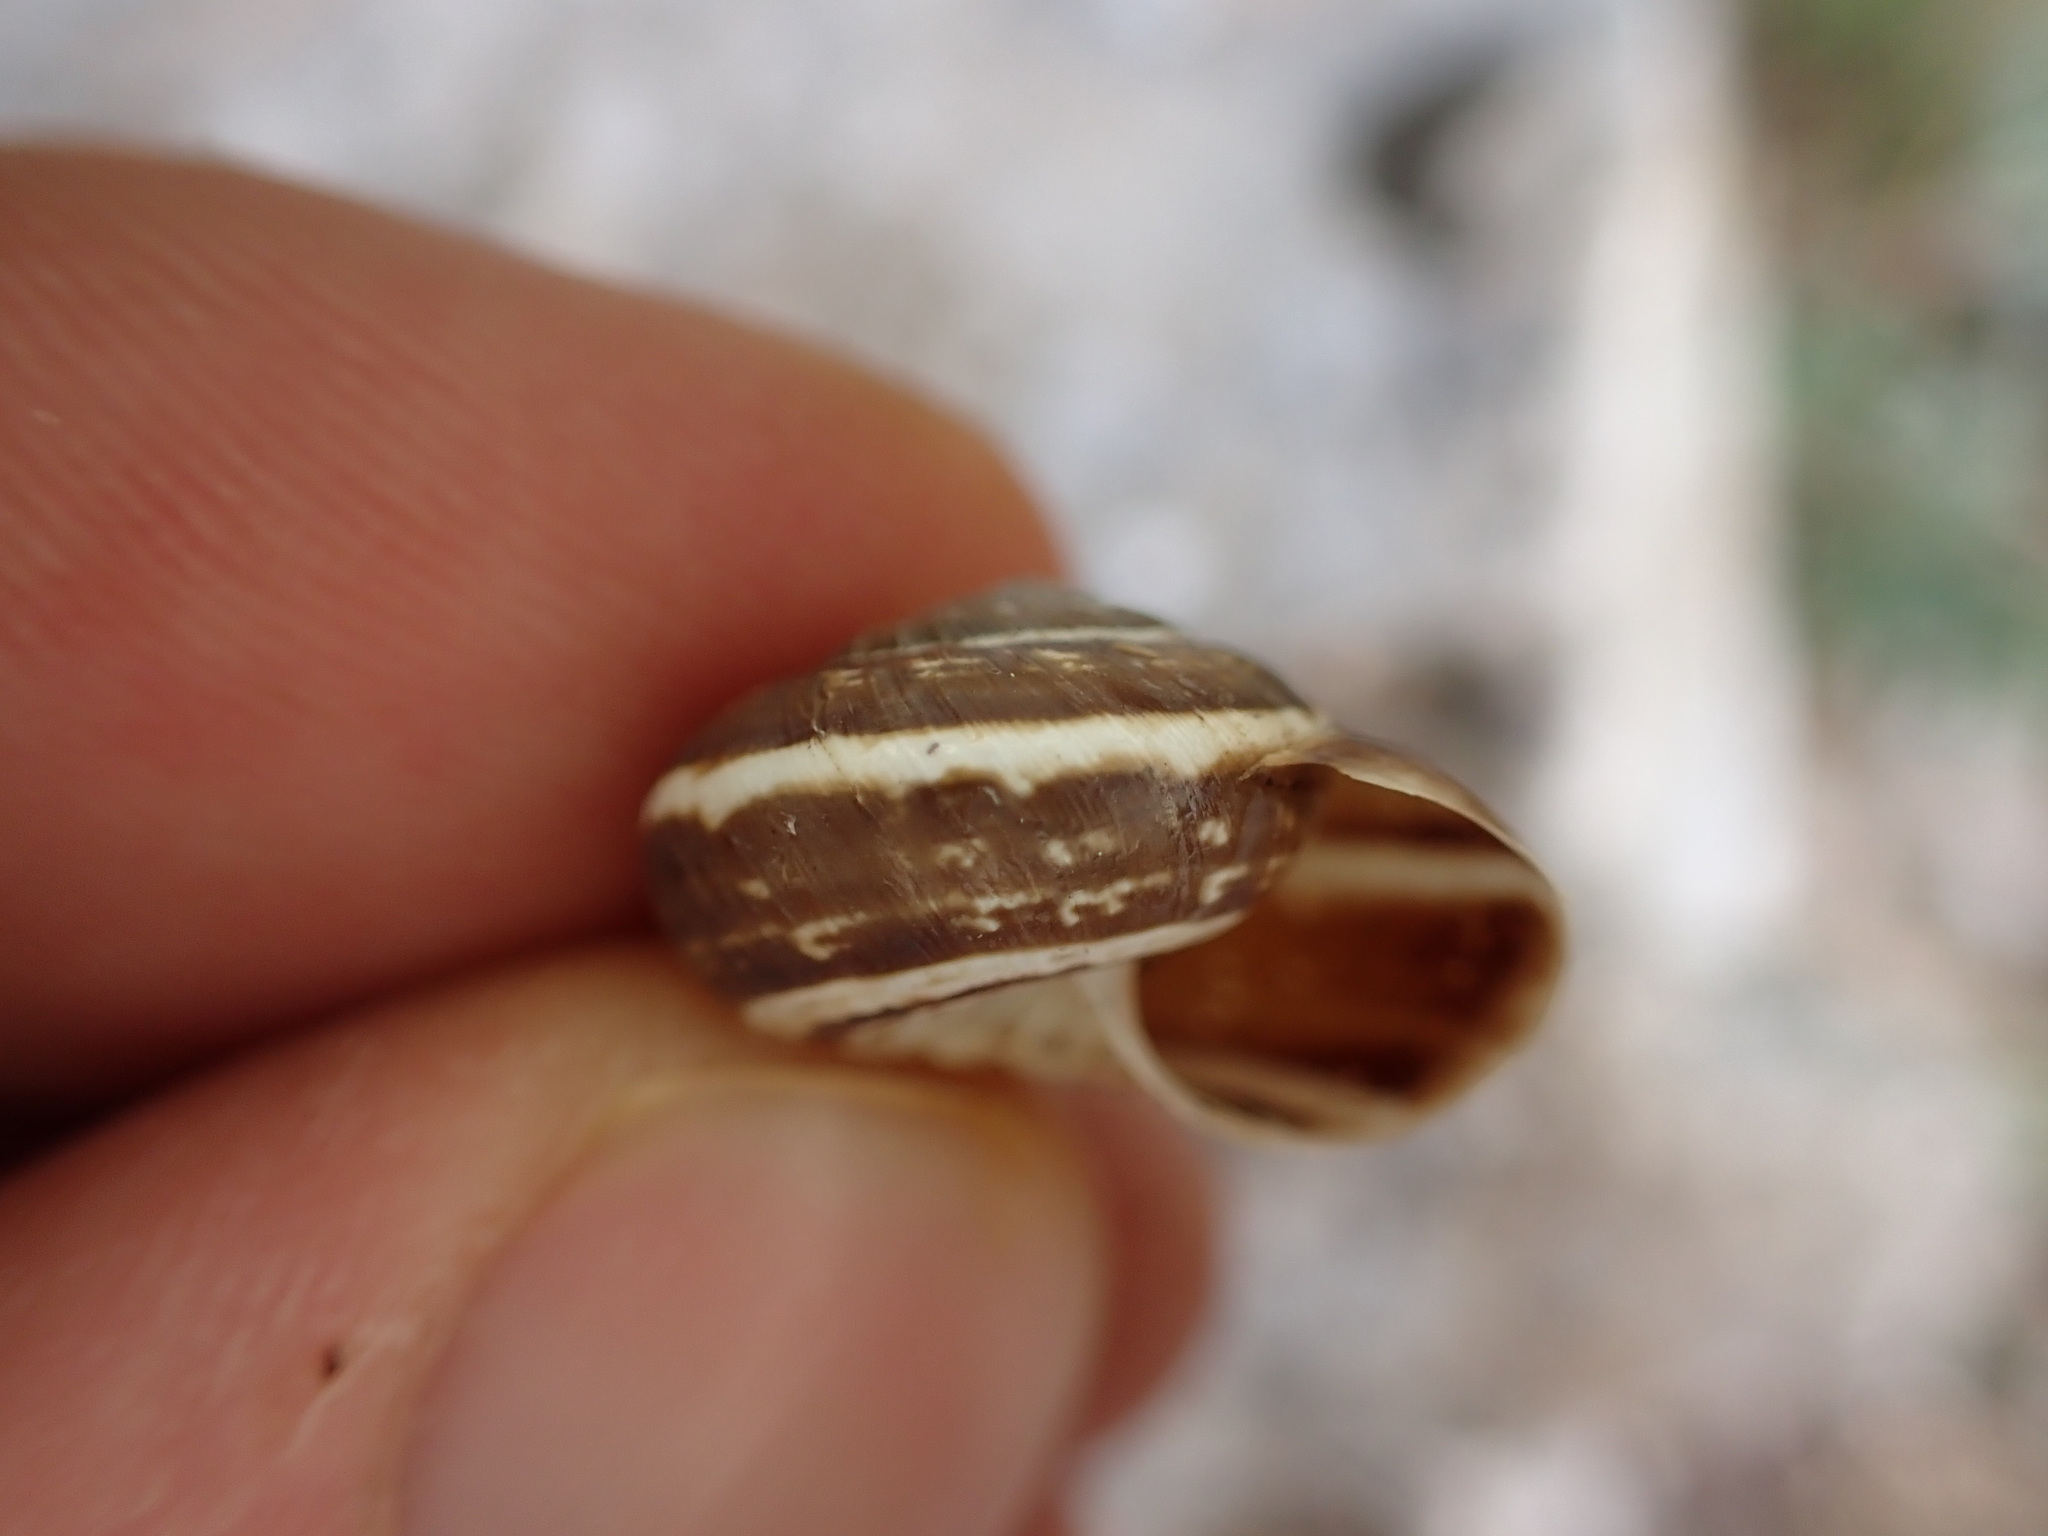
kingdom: Animalia
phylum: Mollusca
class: Gastropoda
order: Stylommatophora
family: Geomitridae
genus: Xerosecta
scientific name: Xerosecta cespitum
